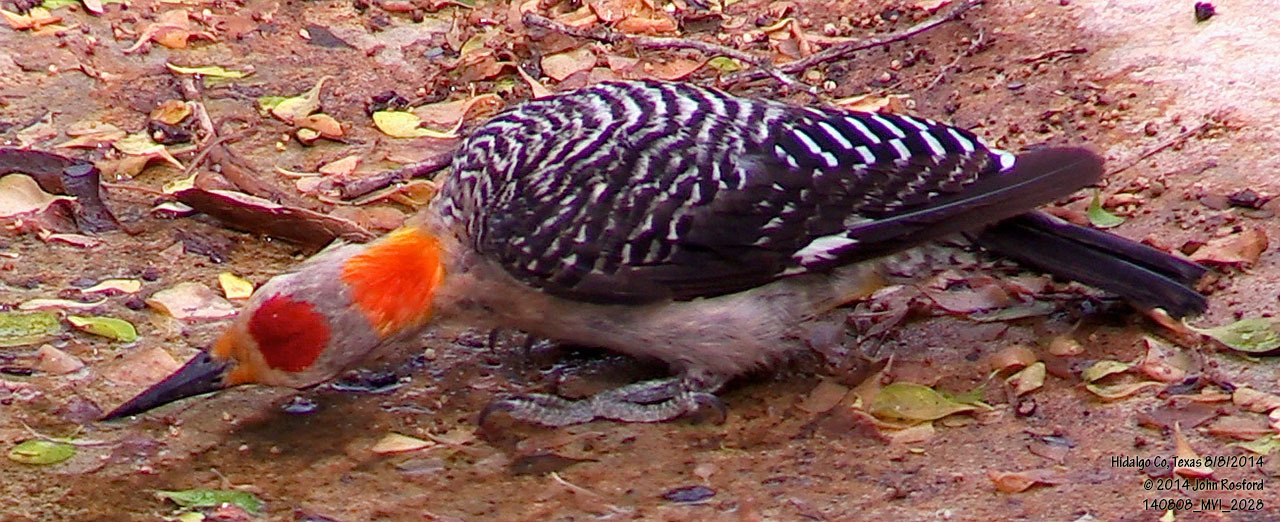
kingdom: Animalia
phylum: Chordata
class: Aves
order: Piciformes
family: Picidae
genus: Melanerpes
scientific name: Melanerpes aurifrons
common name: Golden-fronted woodpecker
